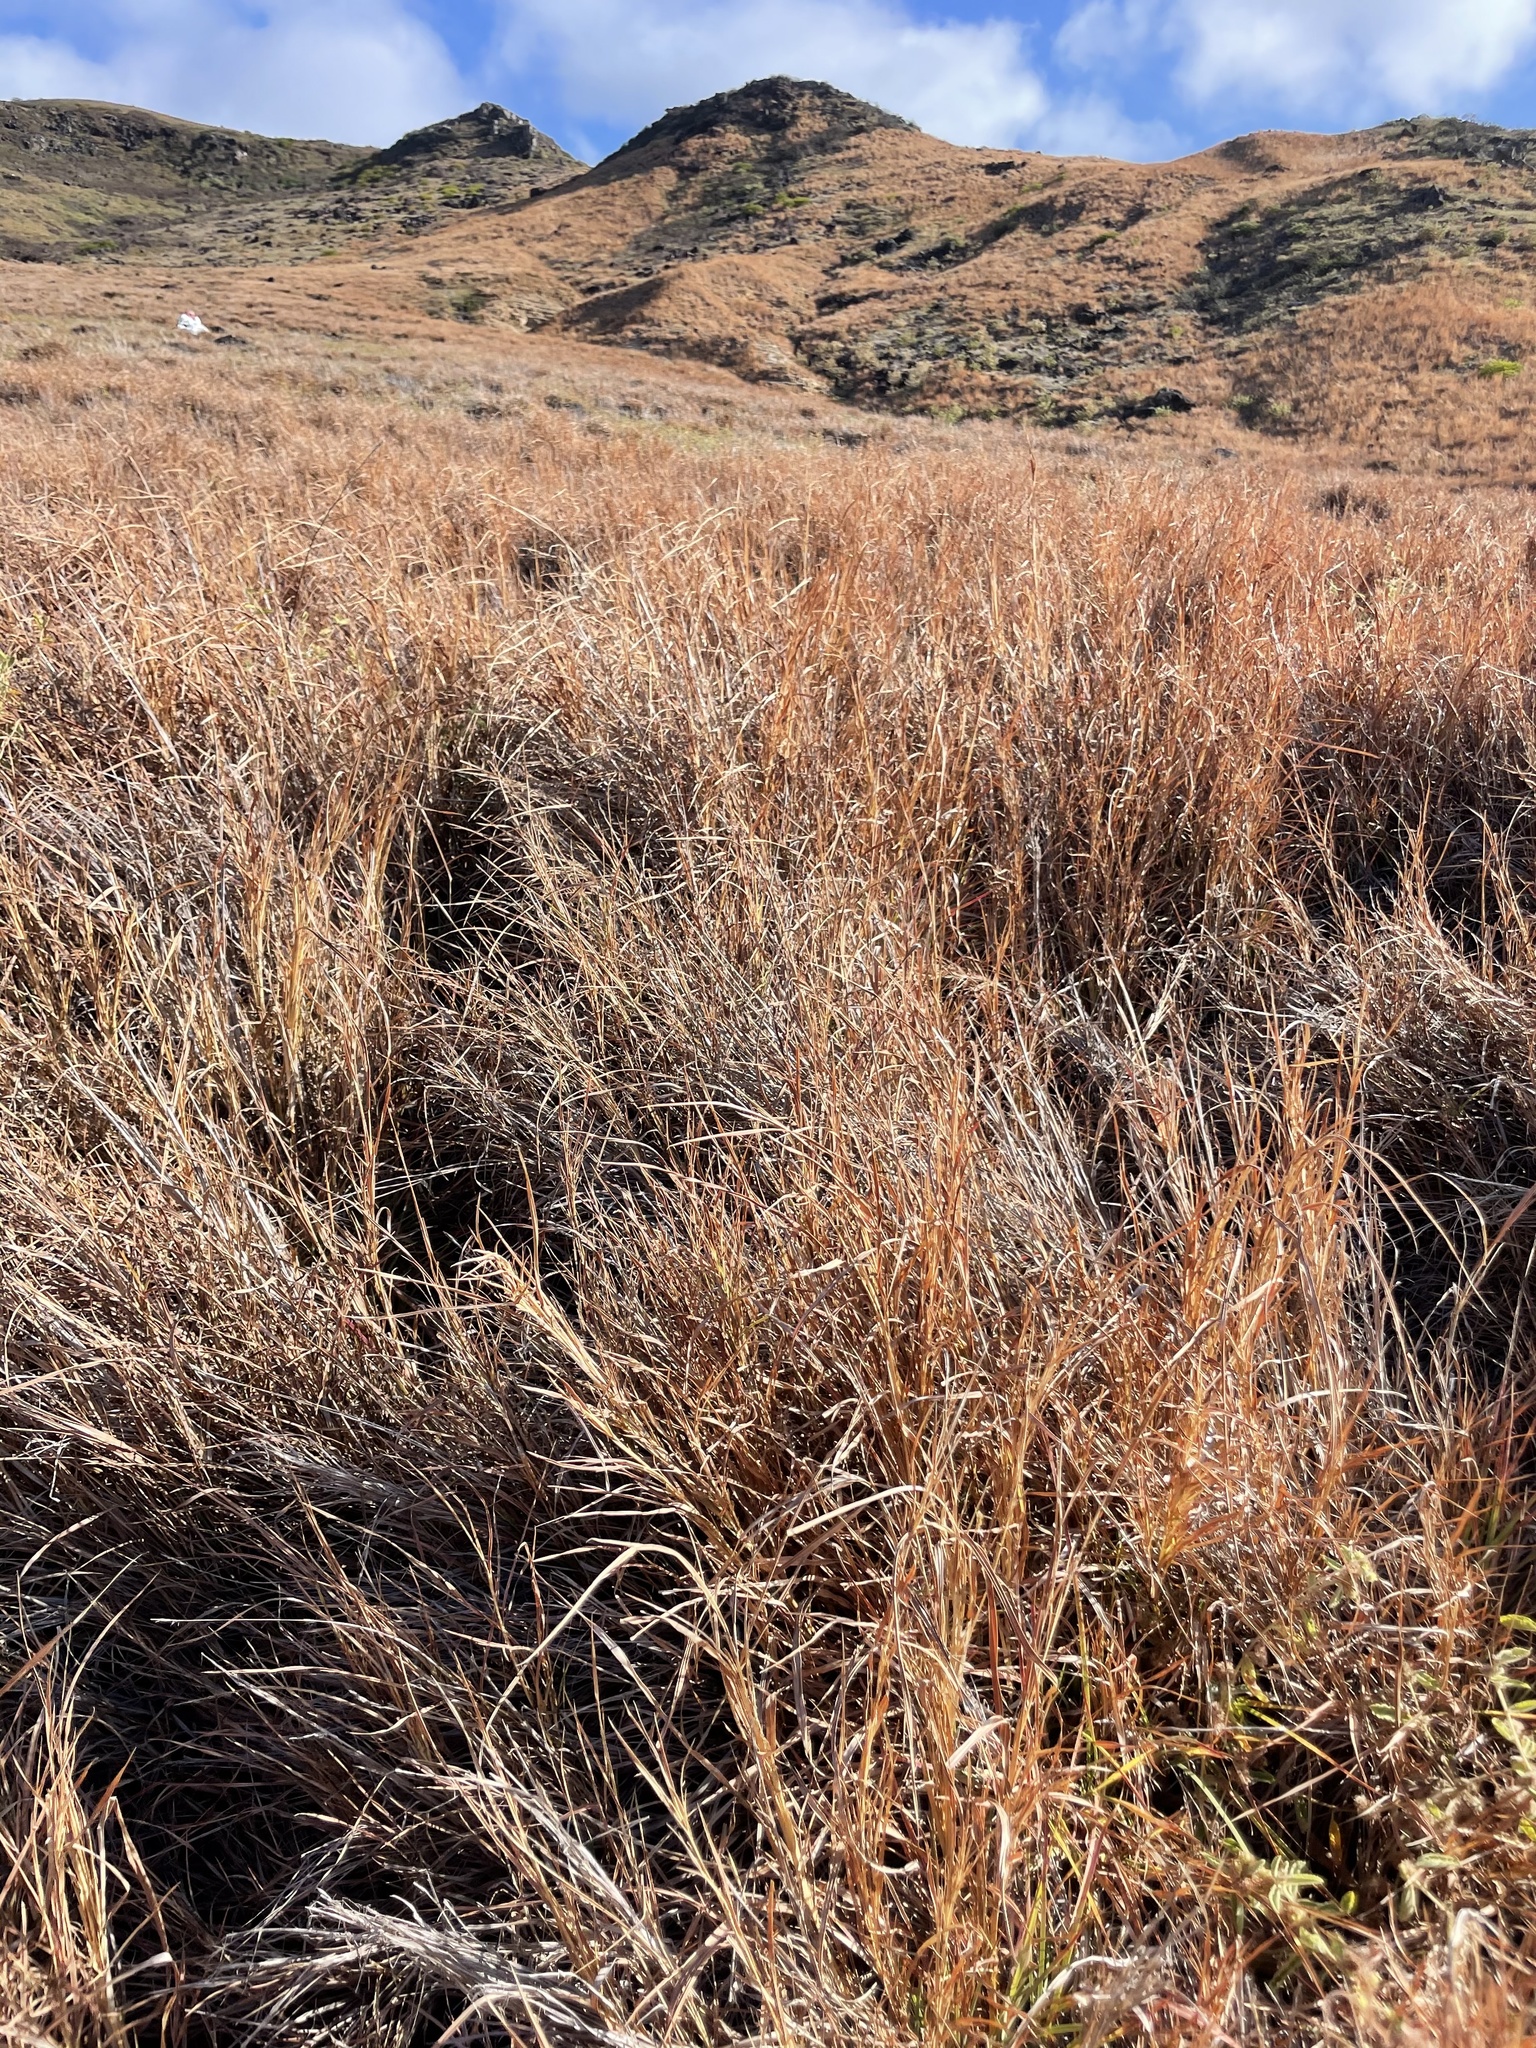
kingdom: Plantae
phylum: Tracheophyta
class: Liliopsida
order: Poales
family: Poaceae
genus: Heteropogon
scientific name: Heteropogon contortus
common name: Tanglehead
